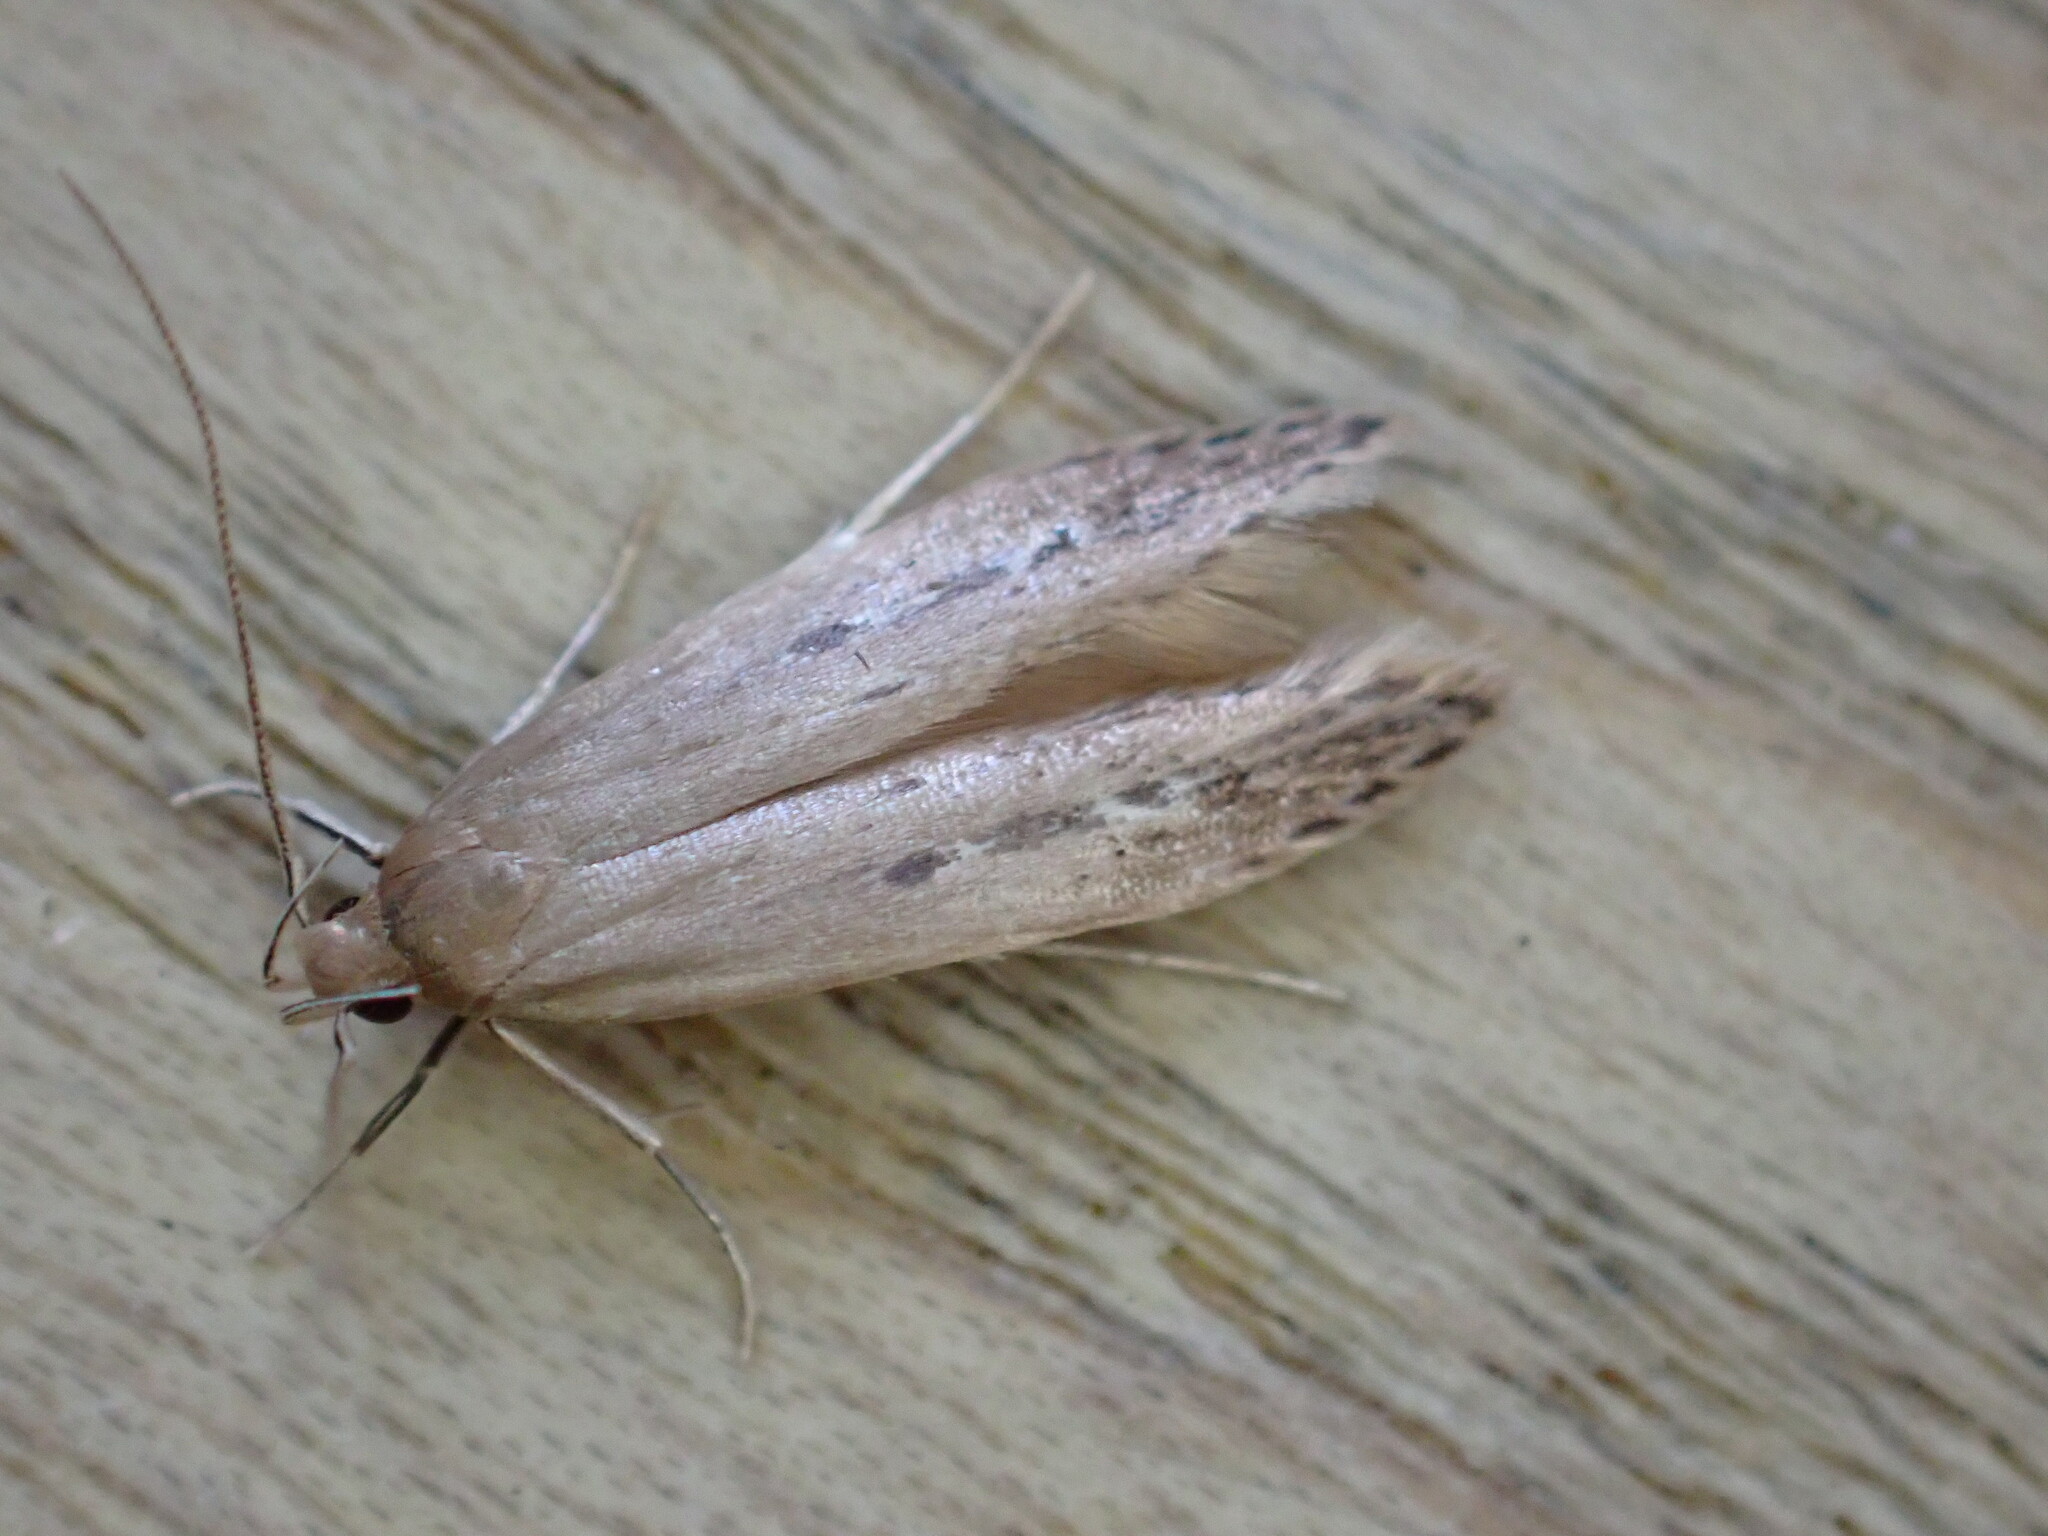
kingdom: Animalia
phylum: Arthropoda
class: Insecta
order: Lepidoptera
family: Cosmopterigidae
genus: Limnaecia
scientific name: Limnaecia phragmitella
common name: Bulrush cosmet
